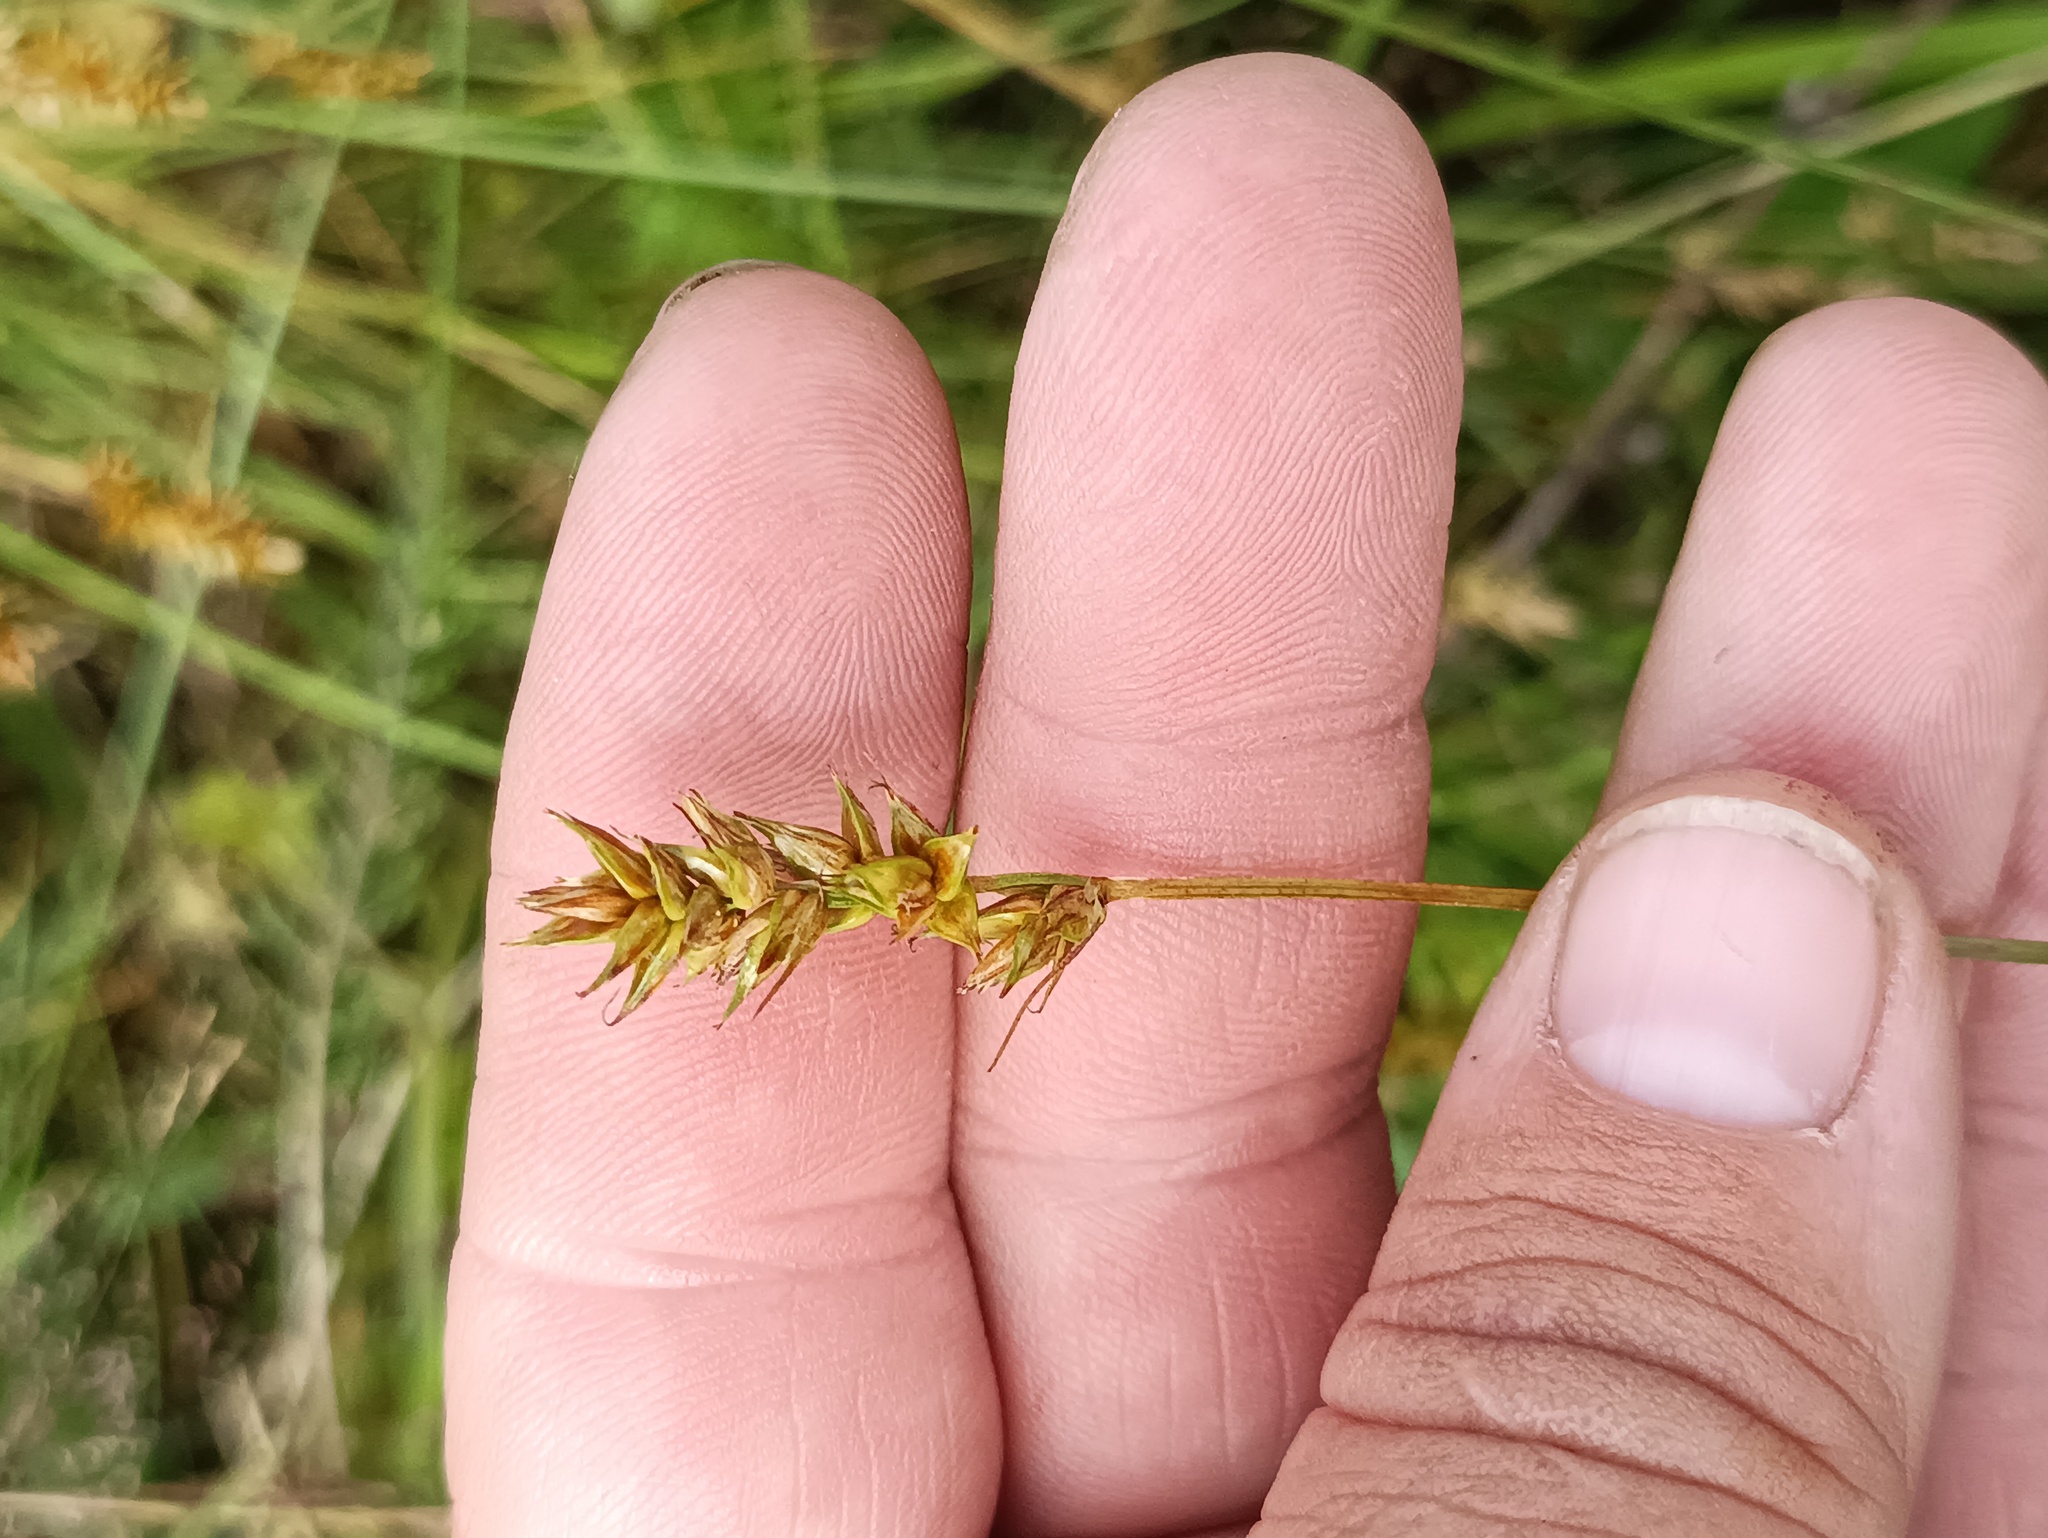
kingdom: Plantae
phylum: Tracheophyta
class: Liliopsida
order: Poales
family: Cyperaceae
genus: Carex
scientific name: Carex spicata
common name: Spiked sedge
